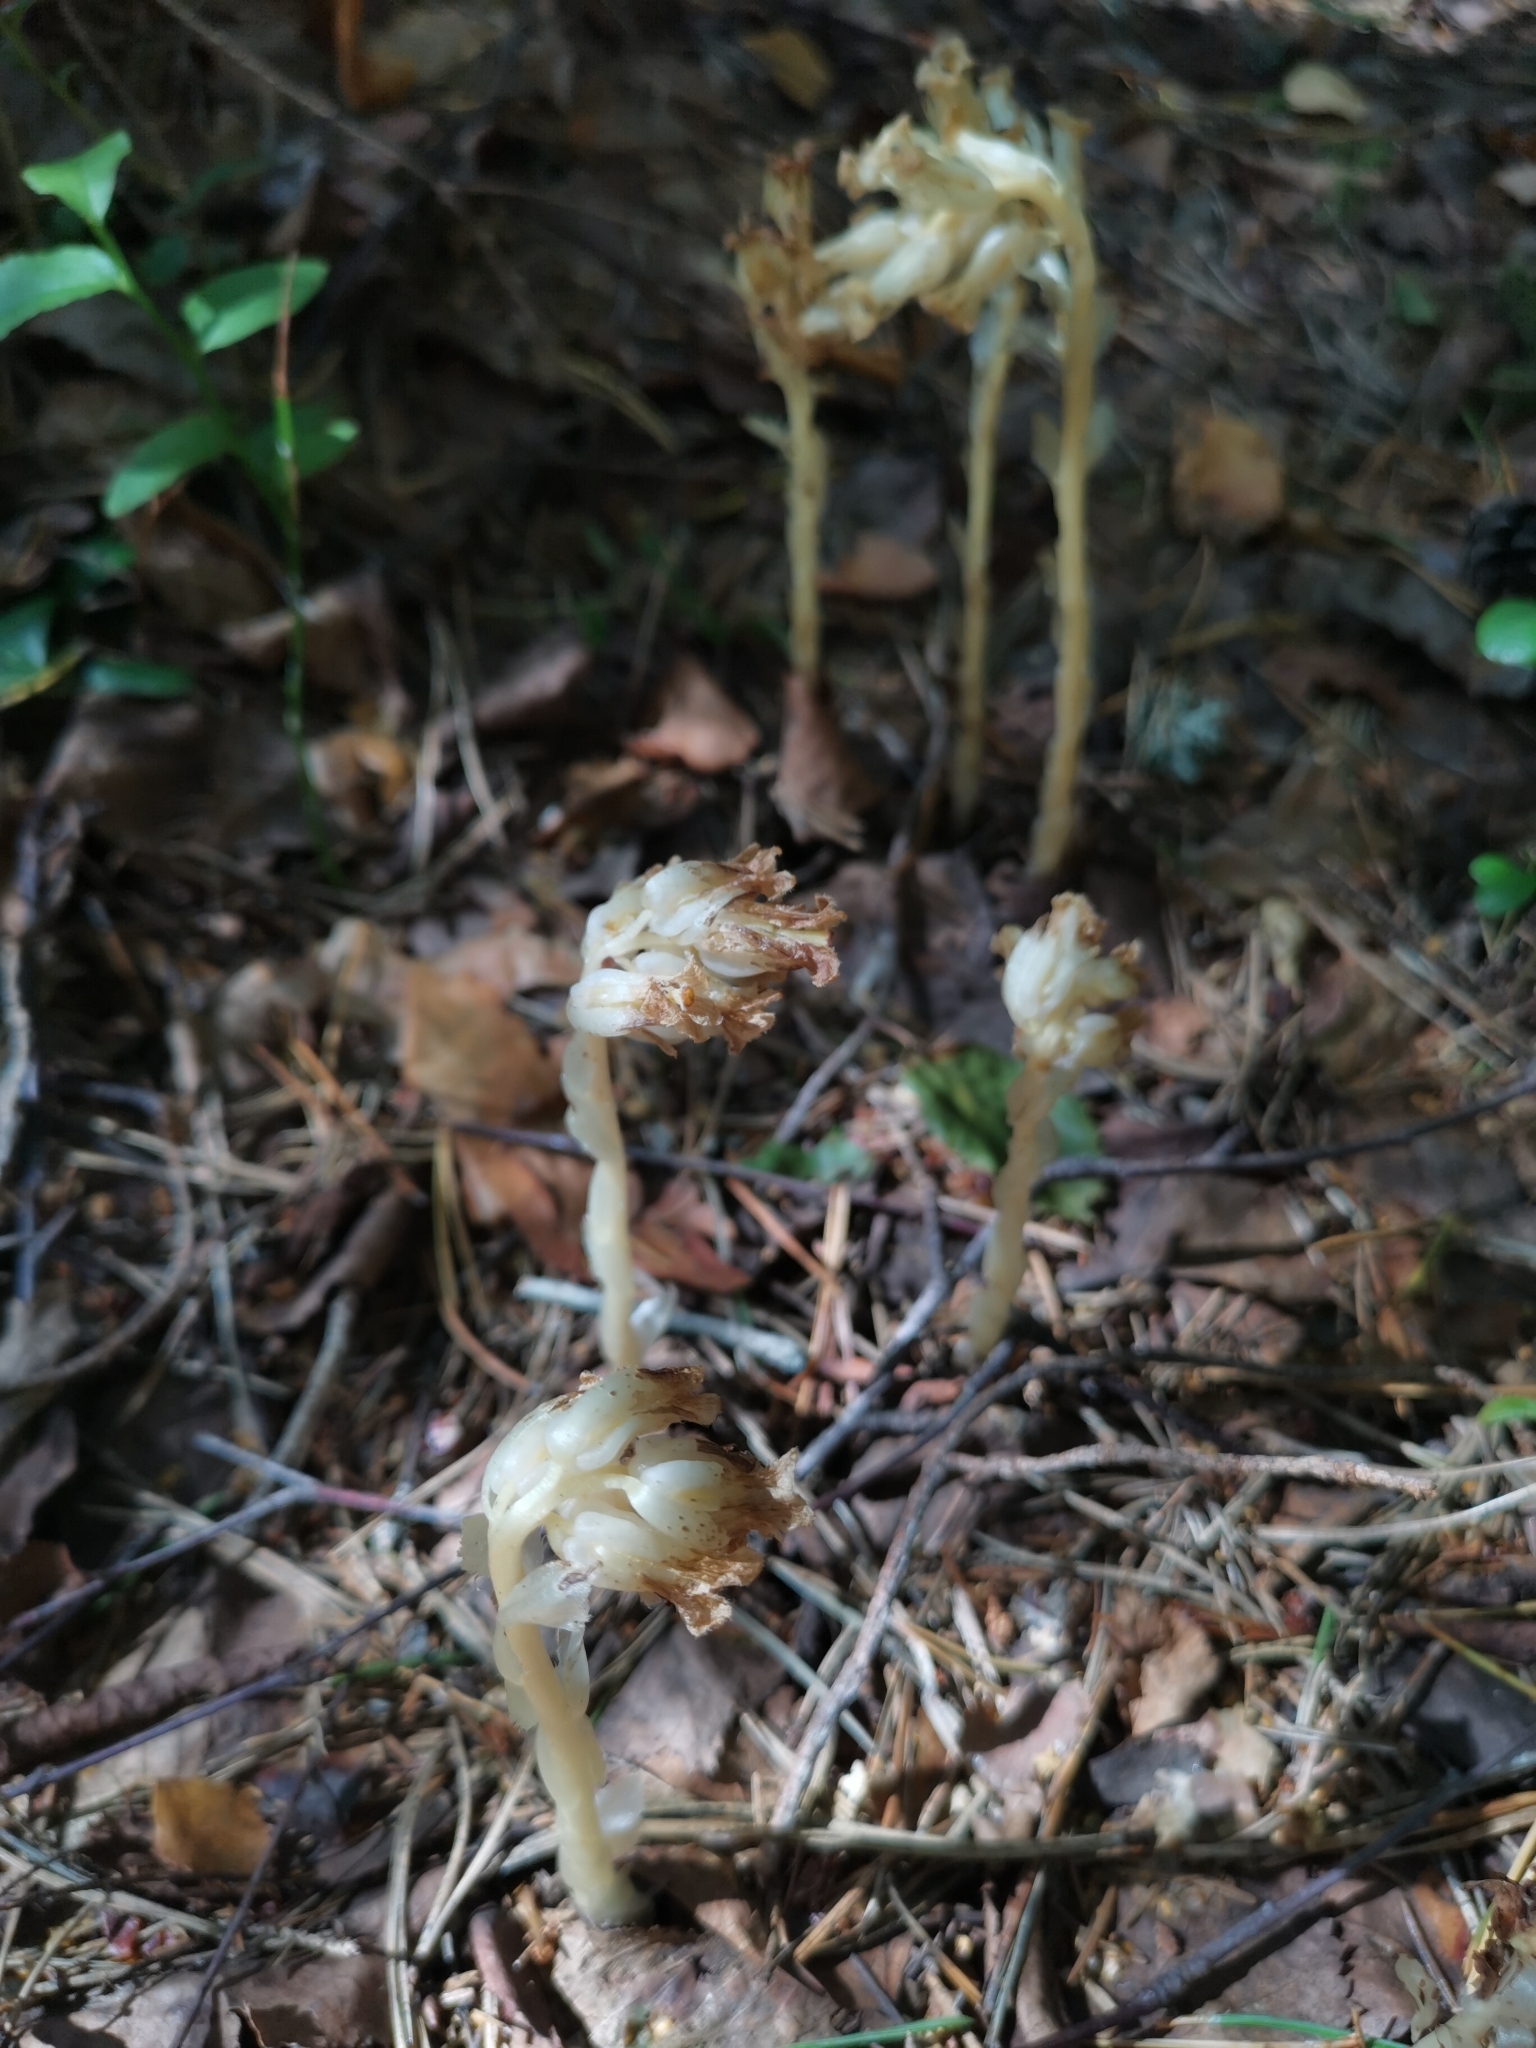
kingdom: Plantae
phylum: Tracheophyta
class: Magnoliopsida
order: Ericales
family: Ericaceae
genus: Hypopitys
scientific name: Hypopitys monotropa
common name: Yellow bird's-nest
